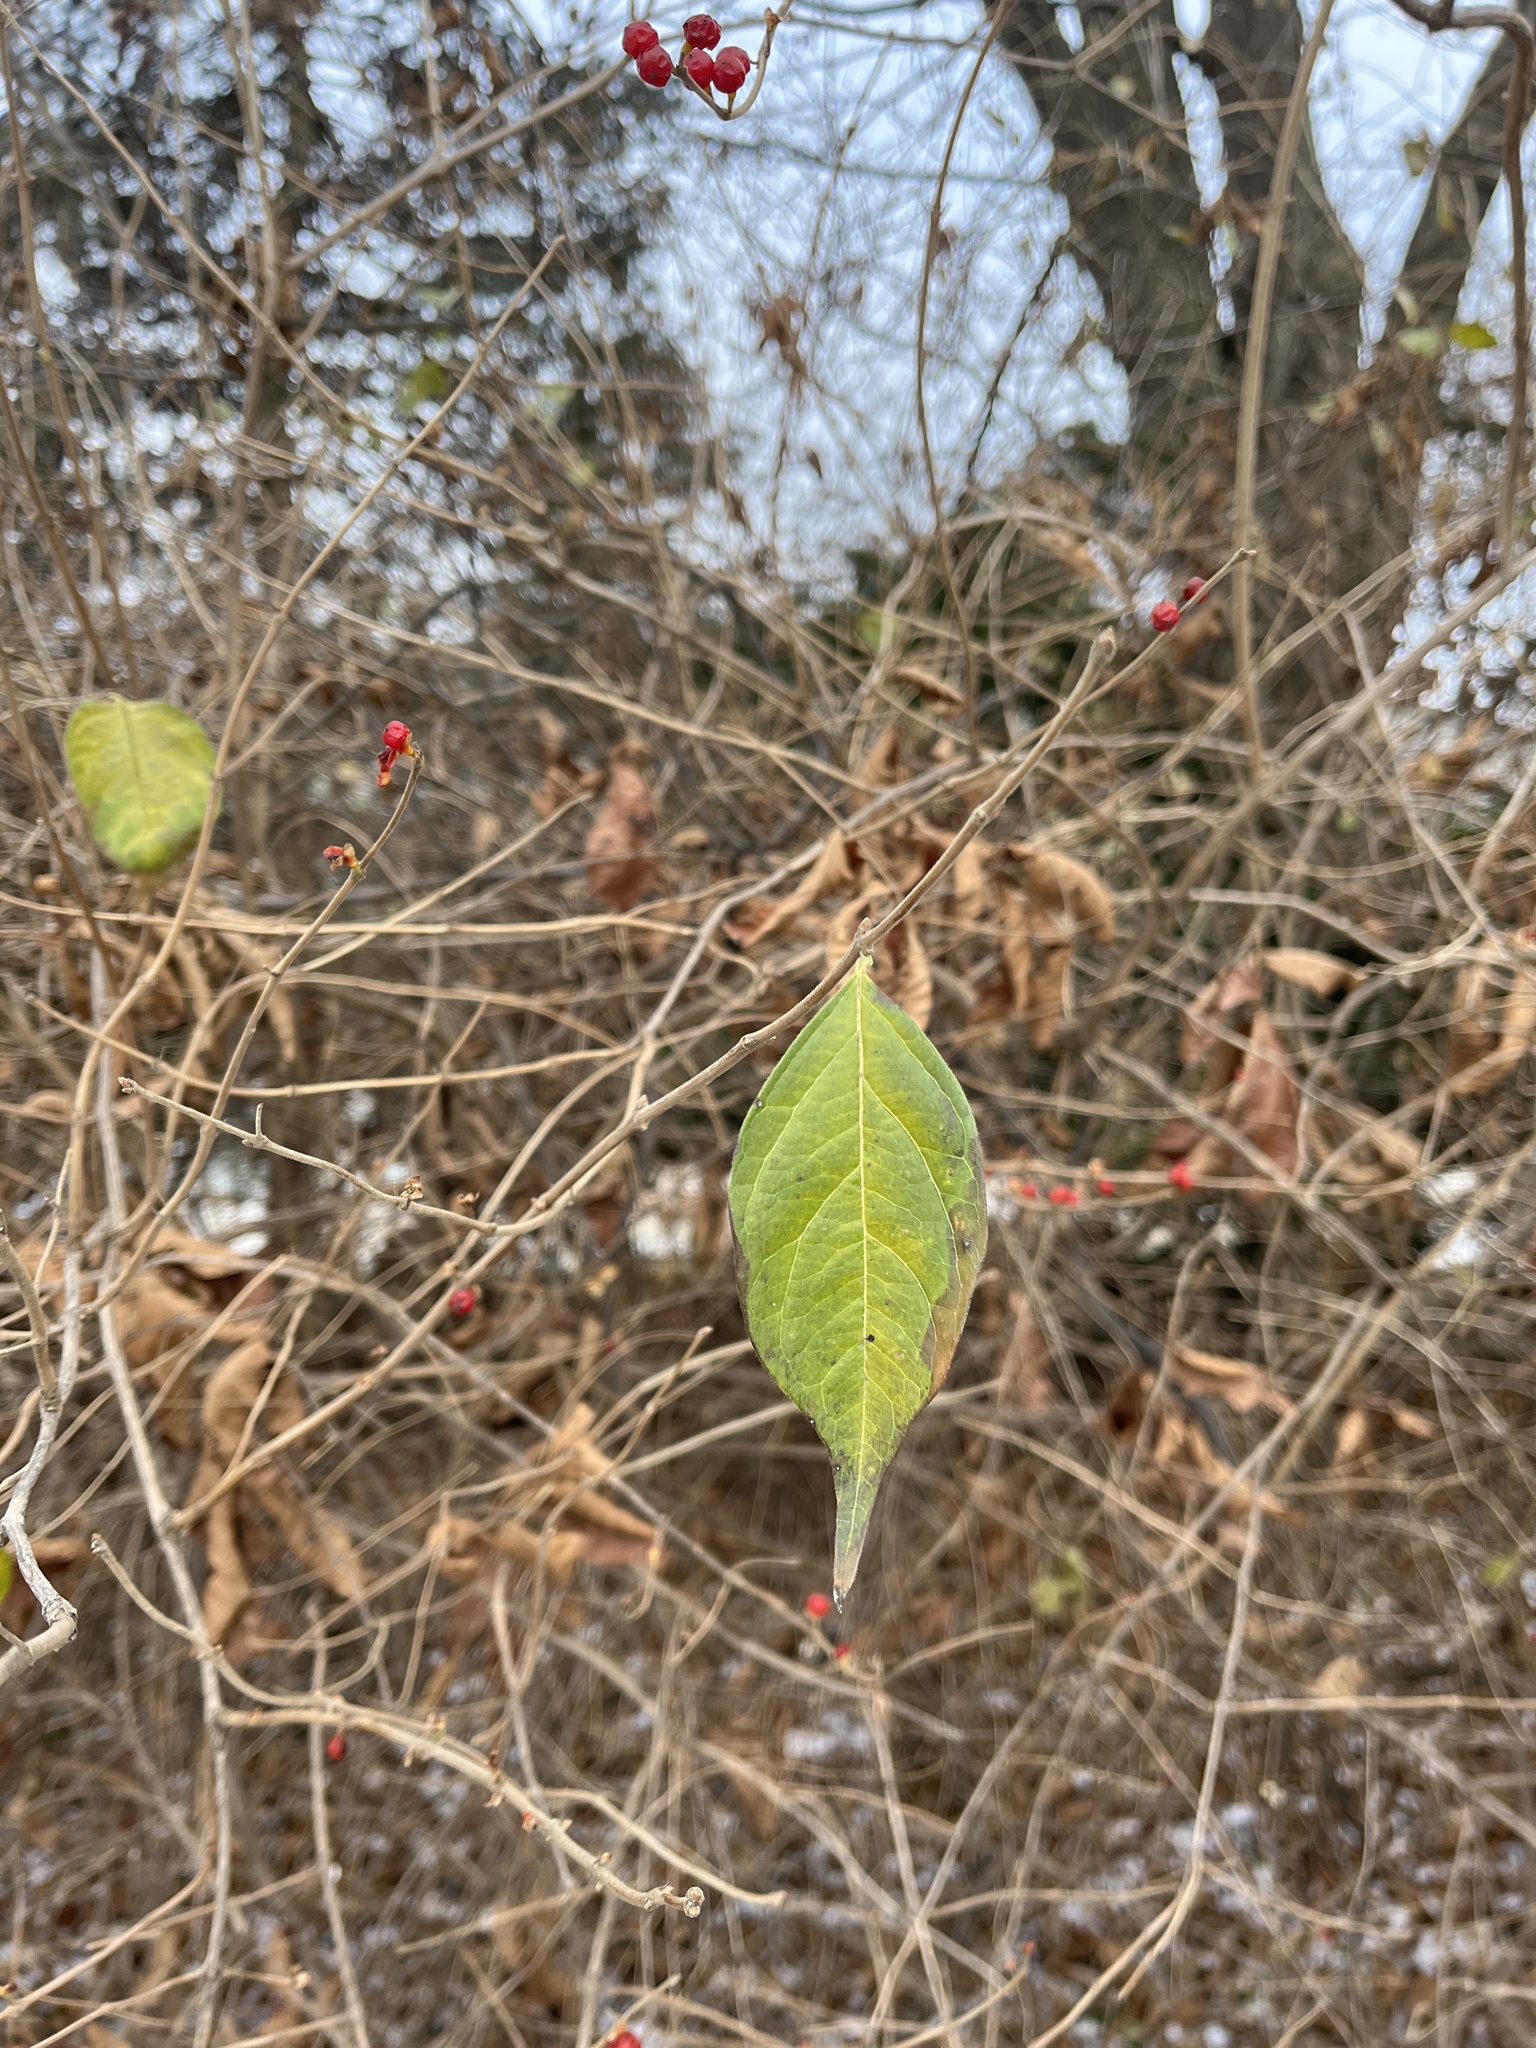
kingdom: Plantae
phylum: Tracheophyta
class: Magnoliopsida
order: Dipsacales
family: Caprifoliaceae
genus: Lonicera
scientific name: Lonicera maackii
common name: Amur honeysuckle
